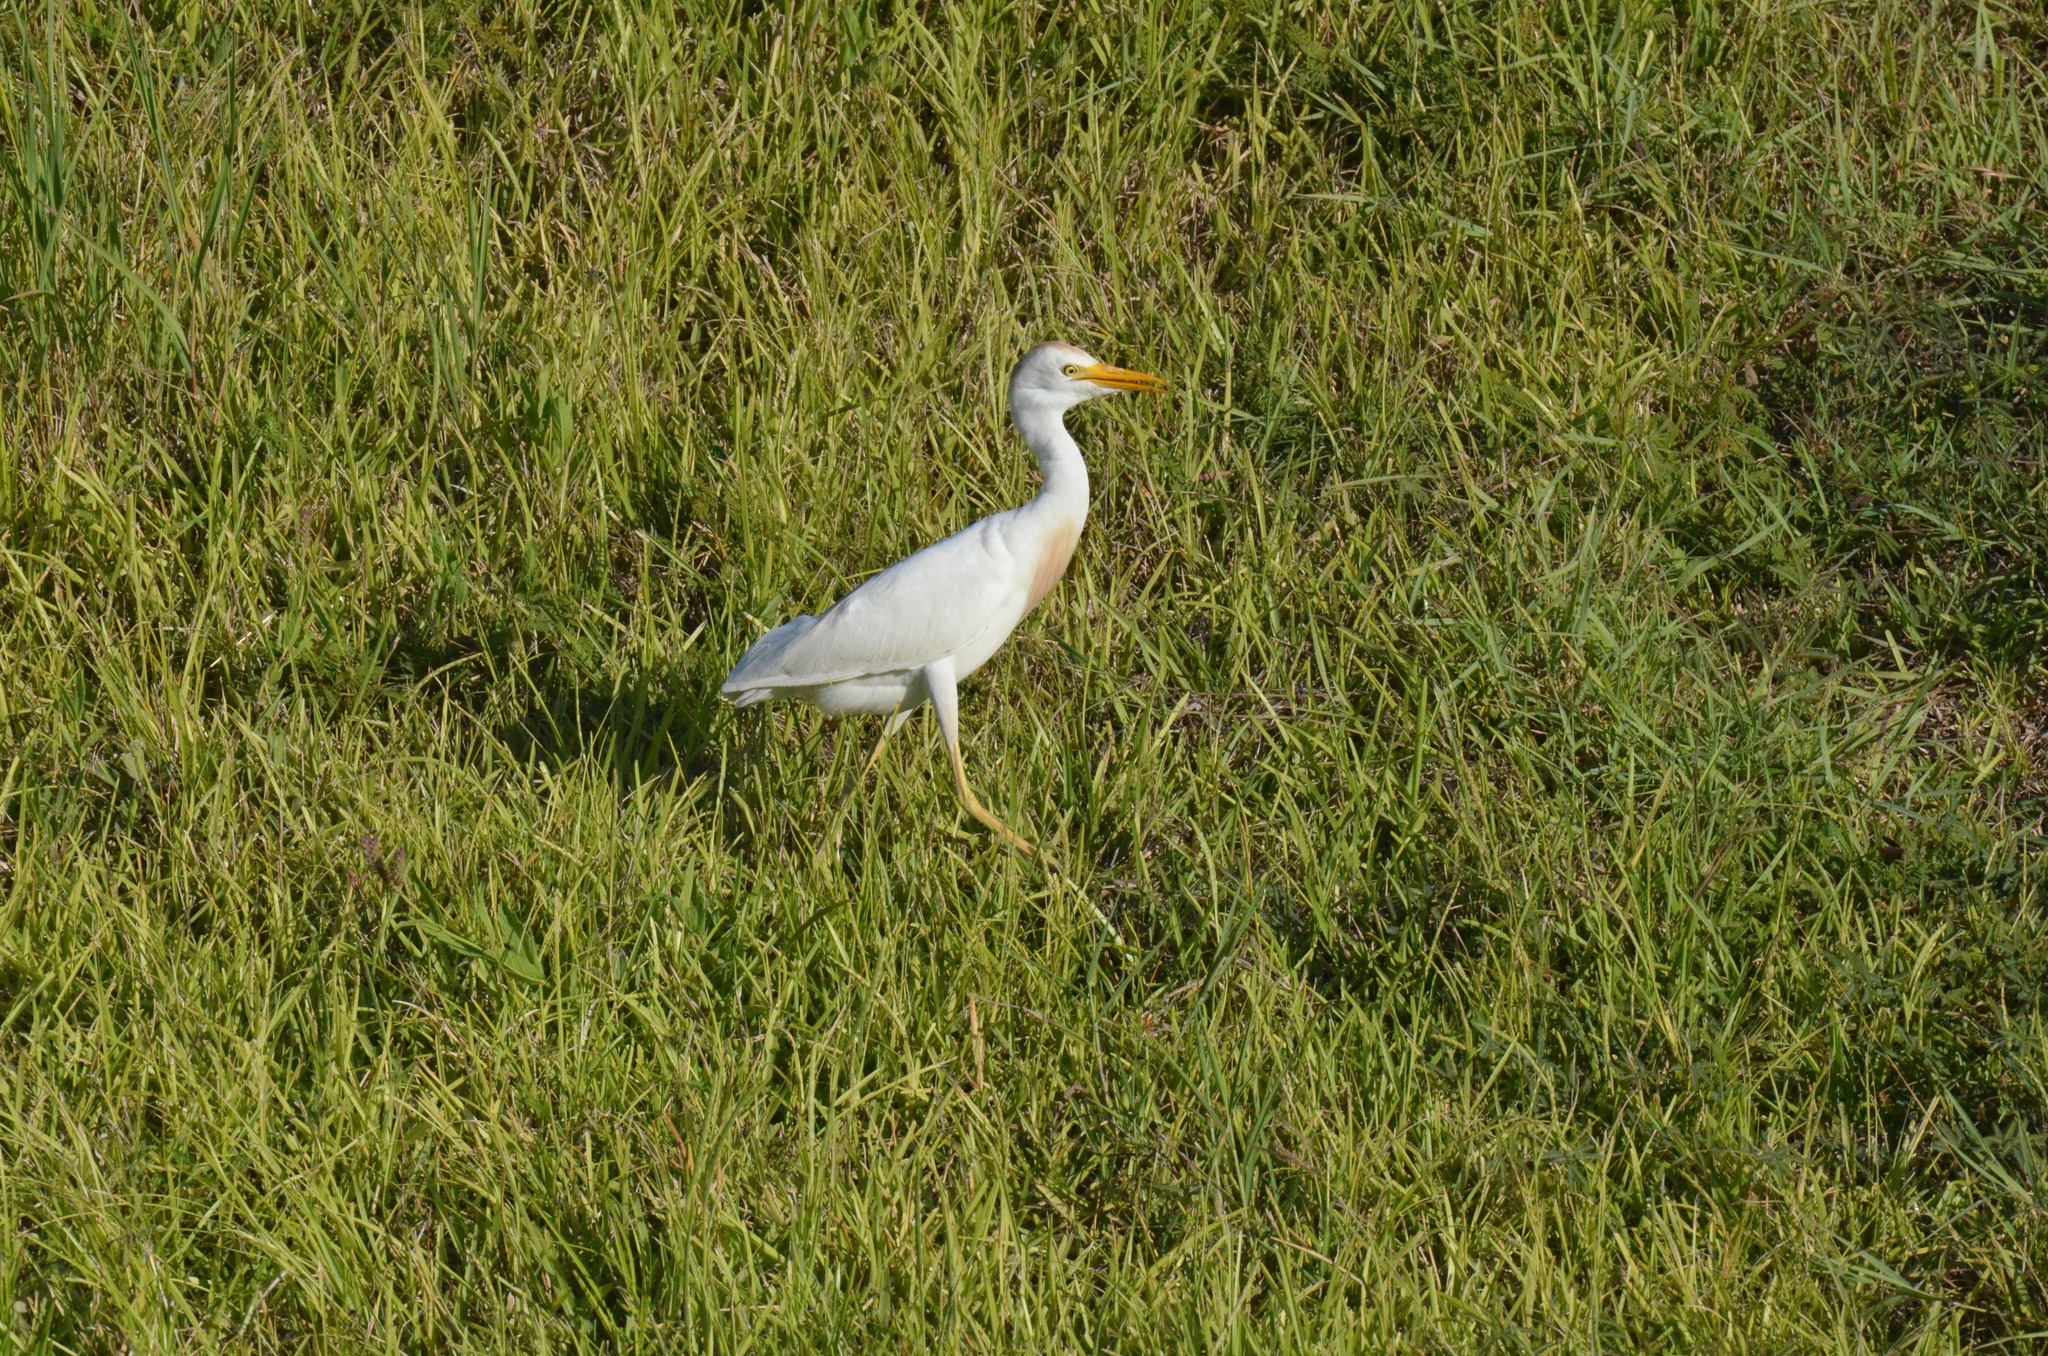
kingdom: Animalia
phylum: Chordata
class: Aves
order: Pelecaniformes
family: Ardeidae
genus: Bubulcus
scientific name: Bubulcus ibis
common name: Cattle egret
